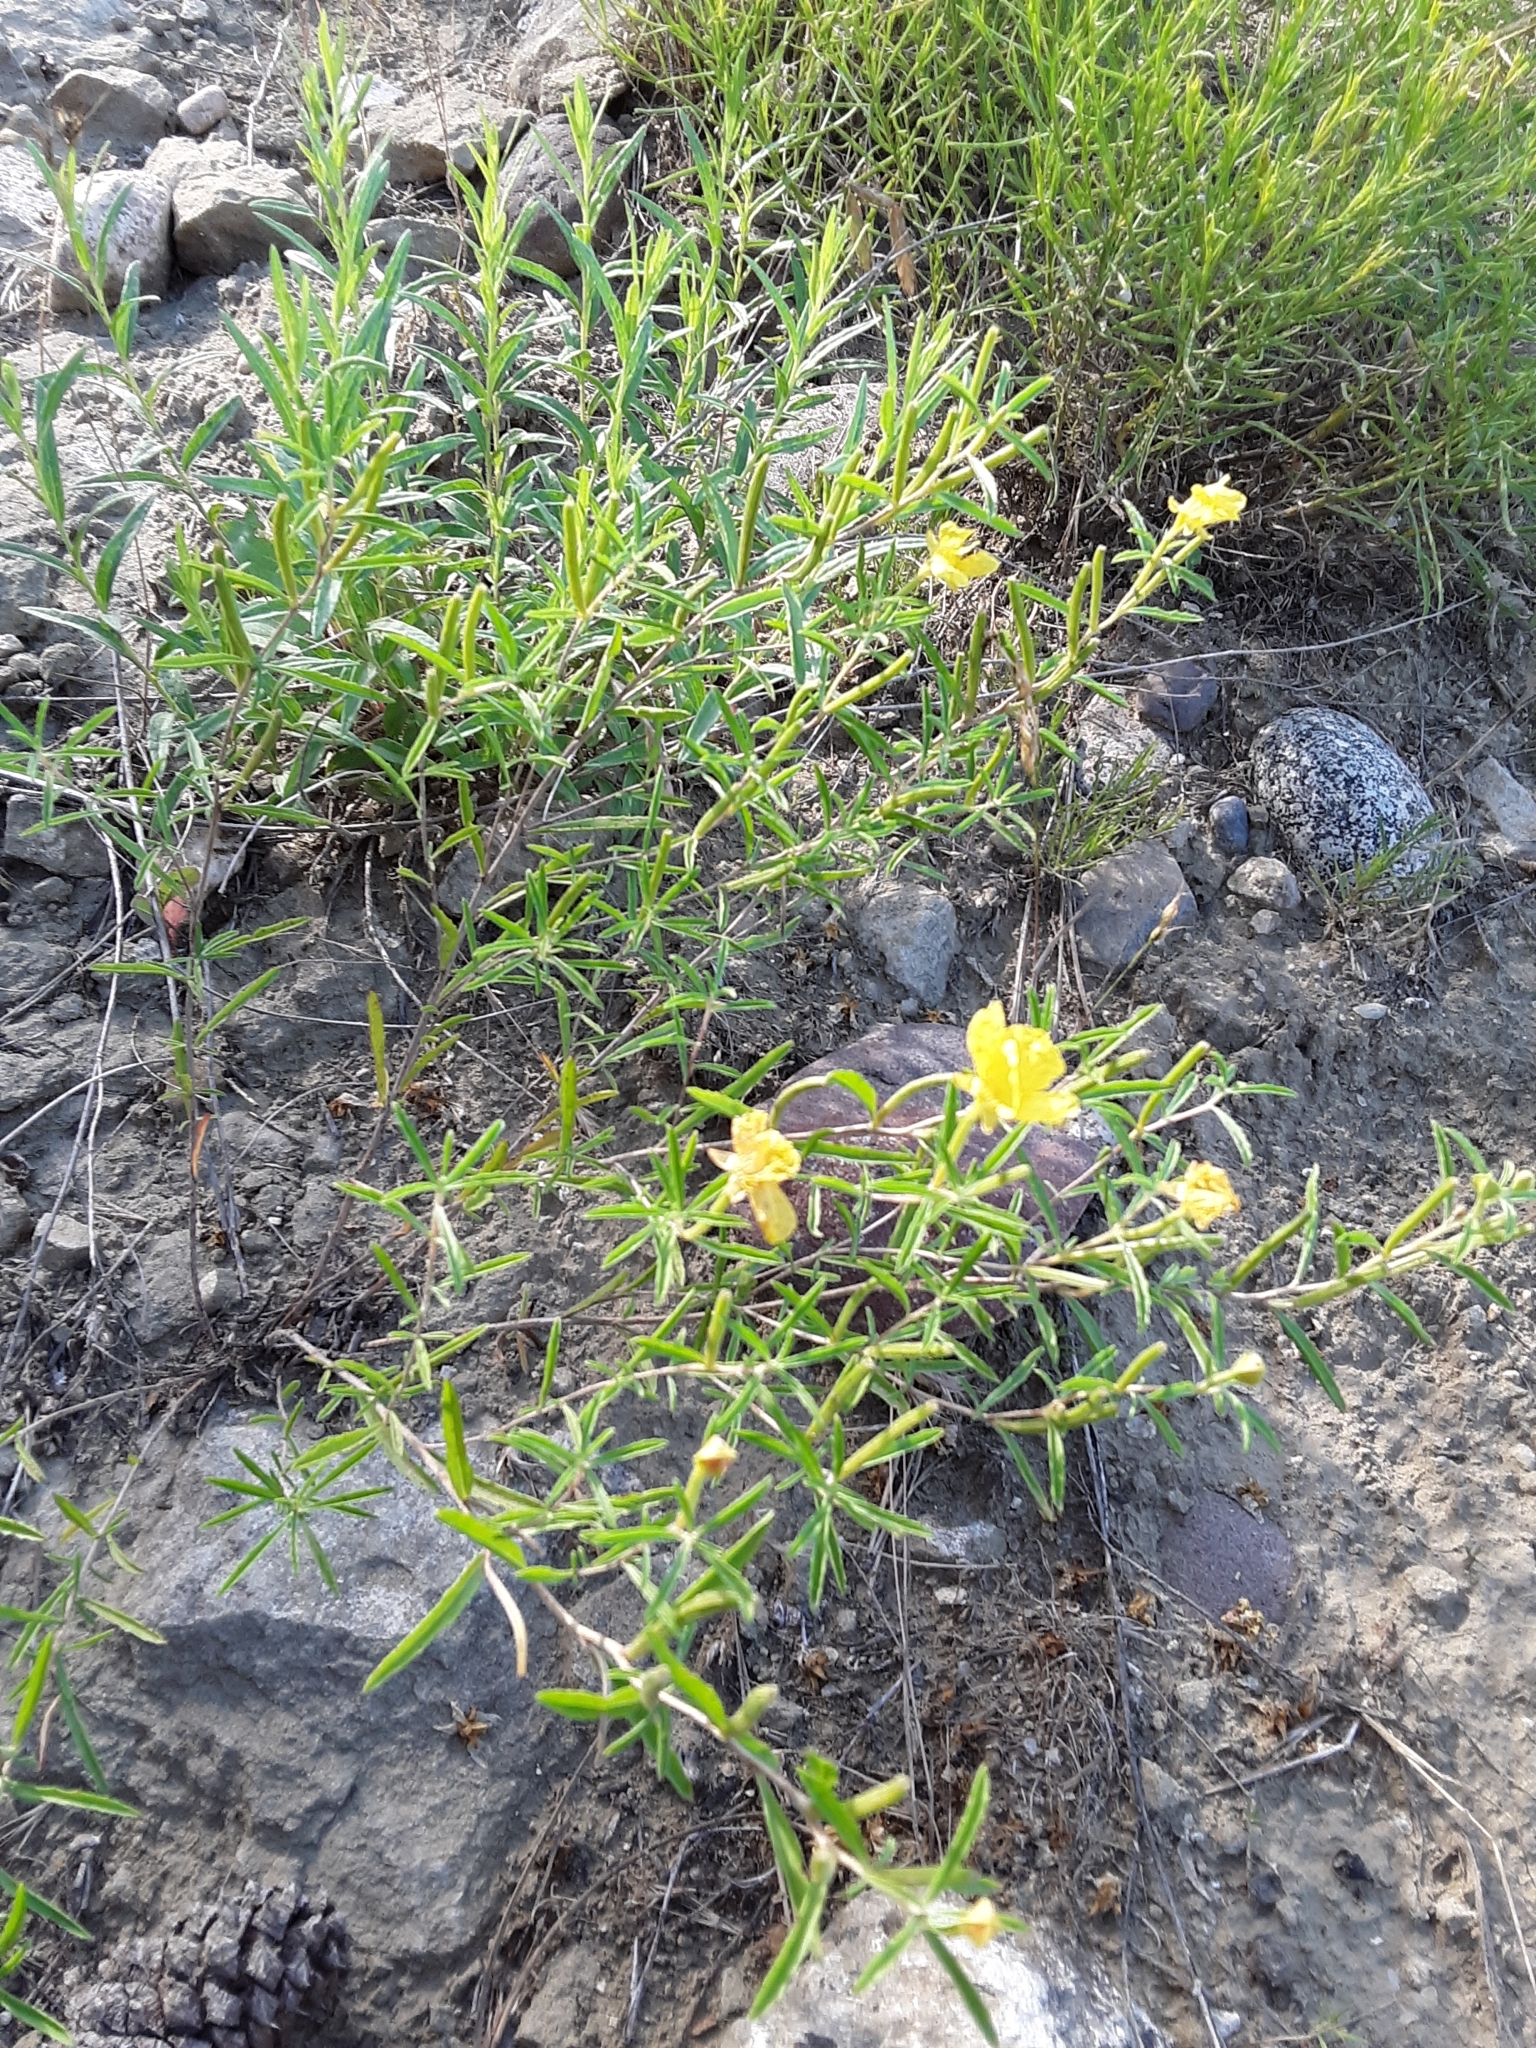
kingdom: Plantae
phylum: Tracheophyta
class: Magnoliopsida
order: Myrtales
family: Onagraceae
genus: Oenothera
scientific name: Oenothera serrulata
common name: Half-shrub calylophus
